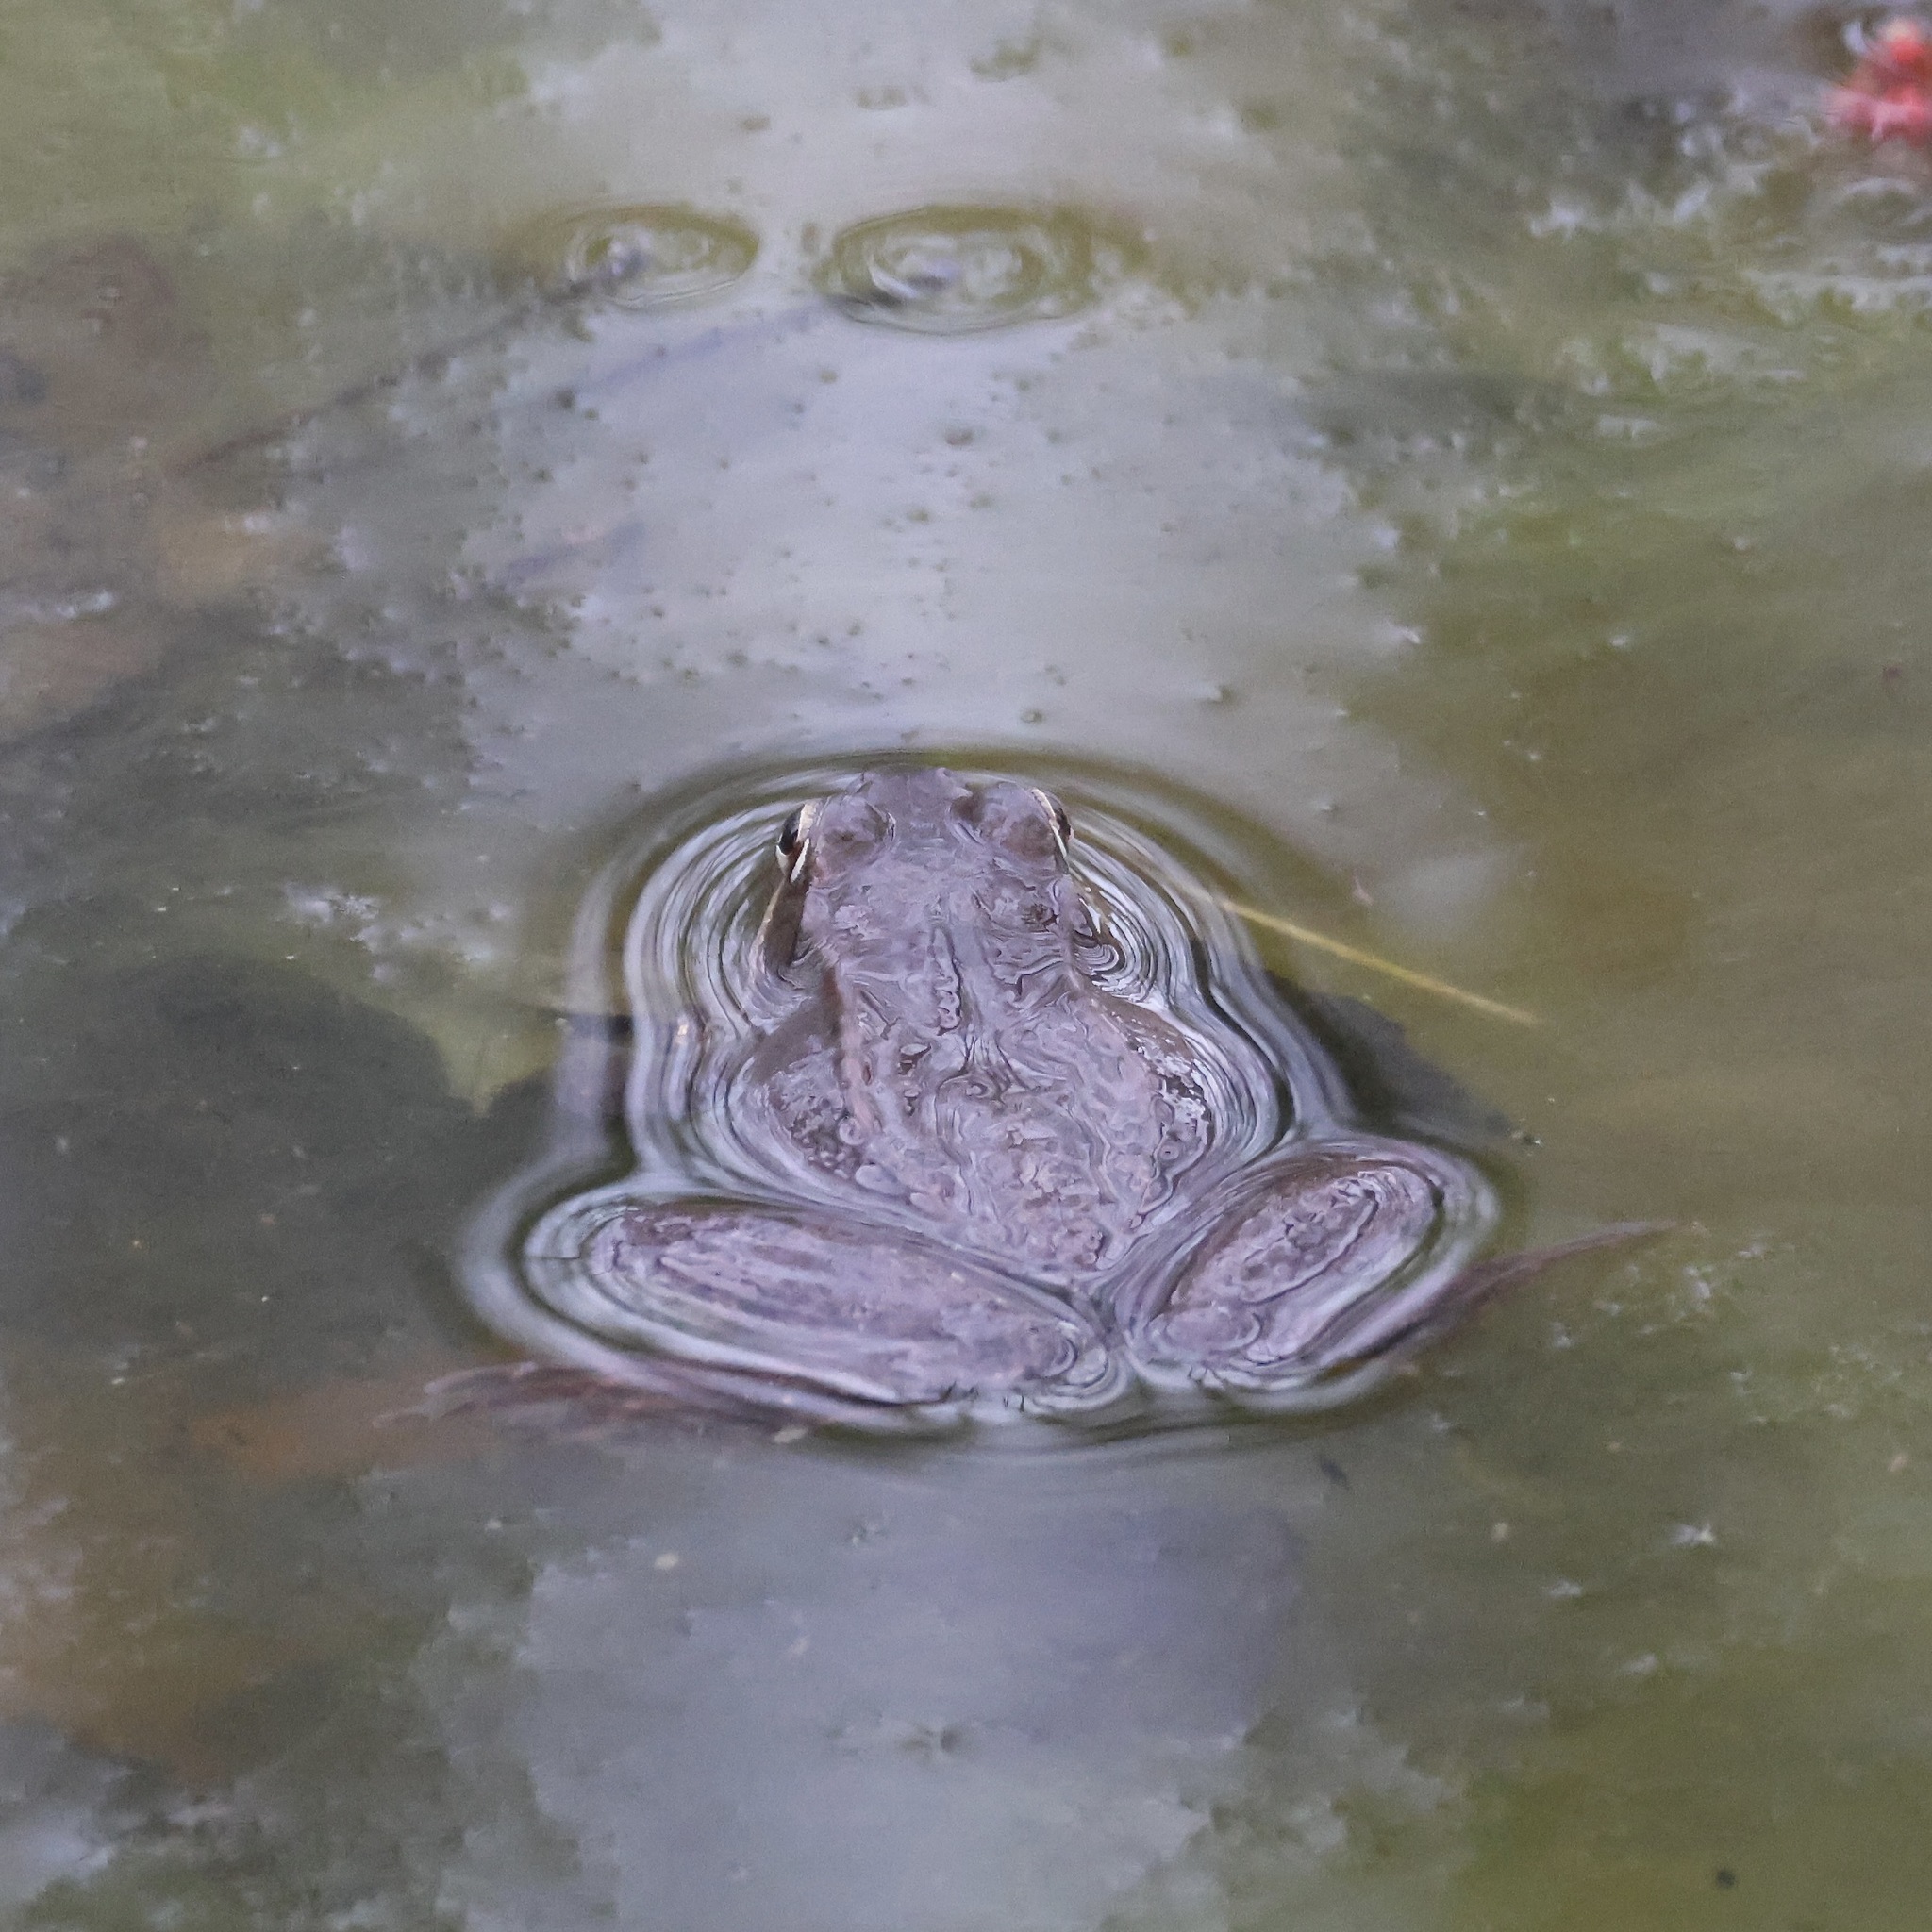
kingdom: Animalia
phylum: Chordata
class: Amphibia
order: Anura
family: Ranidae
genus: Lithobates
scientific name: Lithobates sylvaticus
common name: Wood frog
